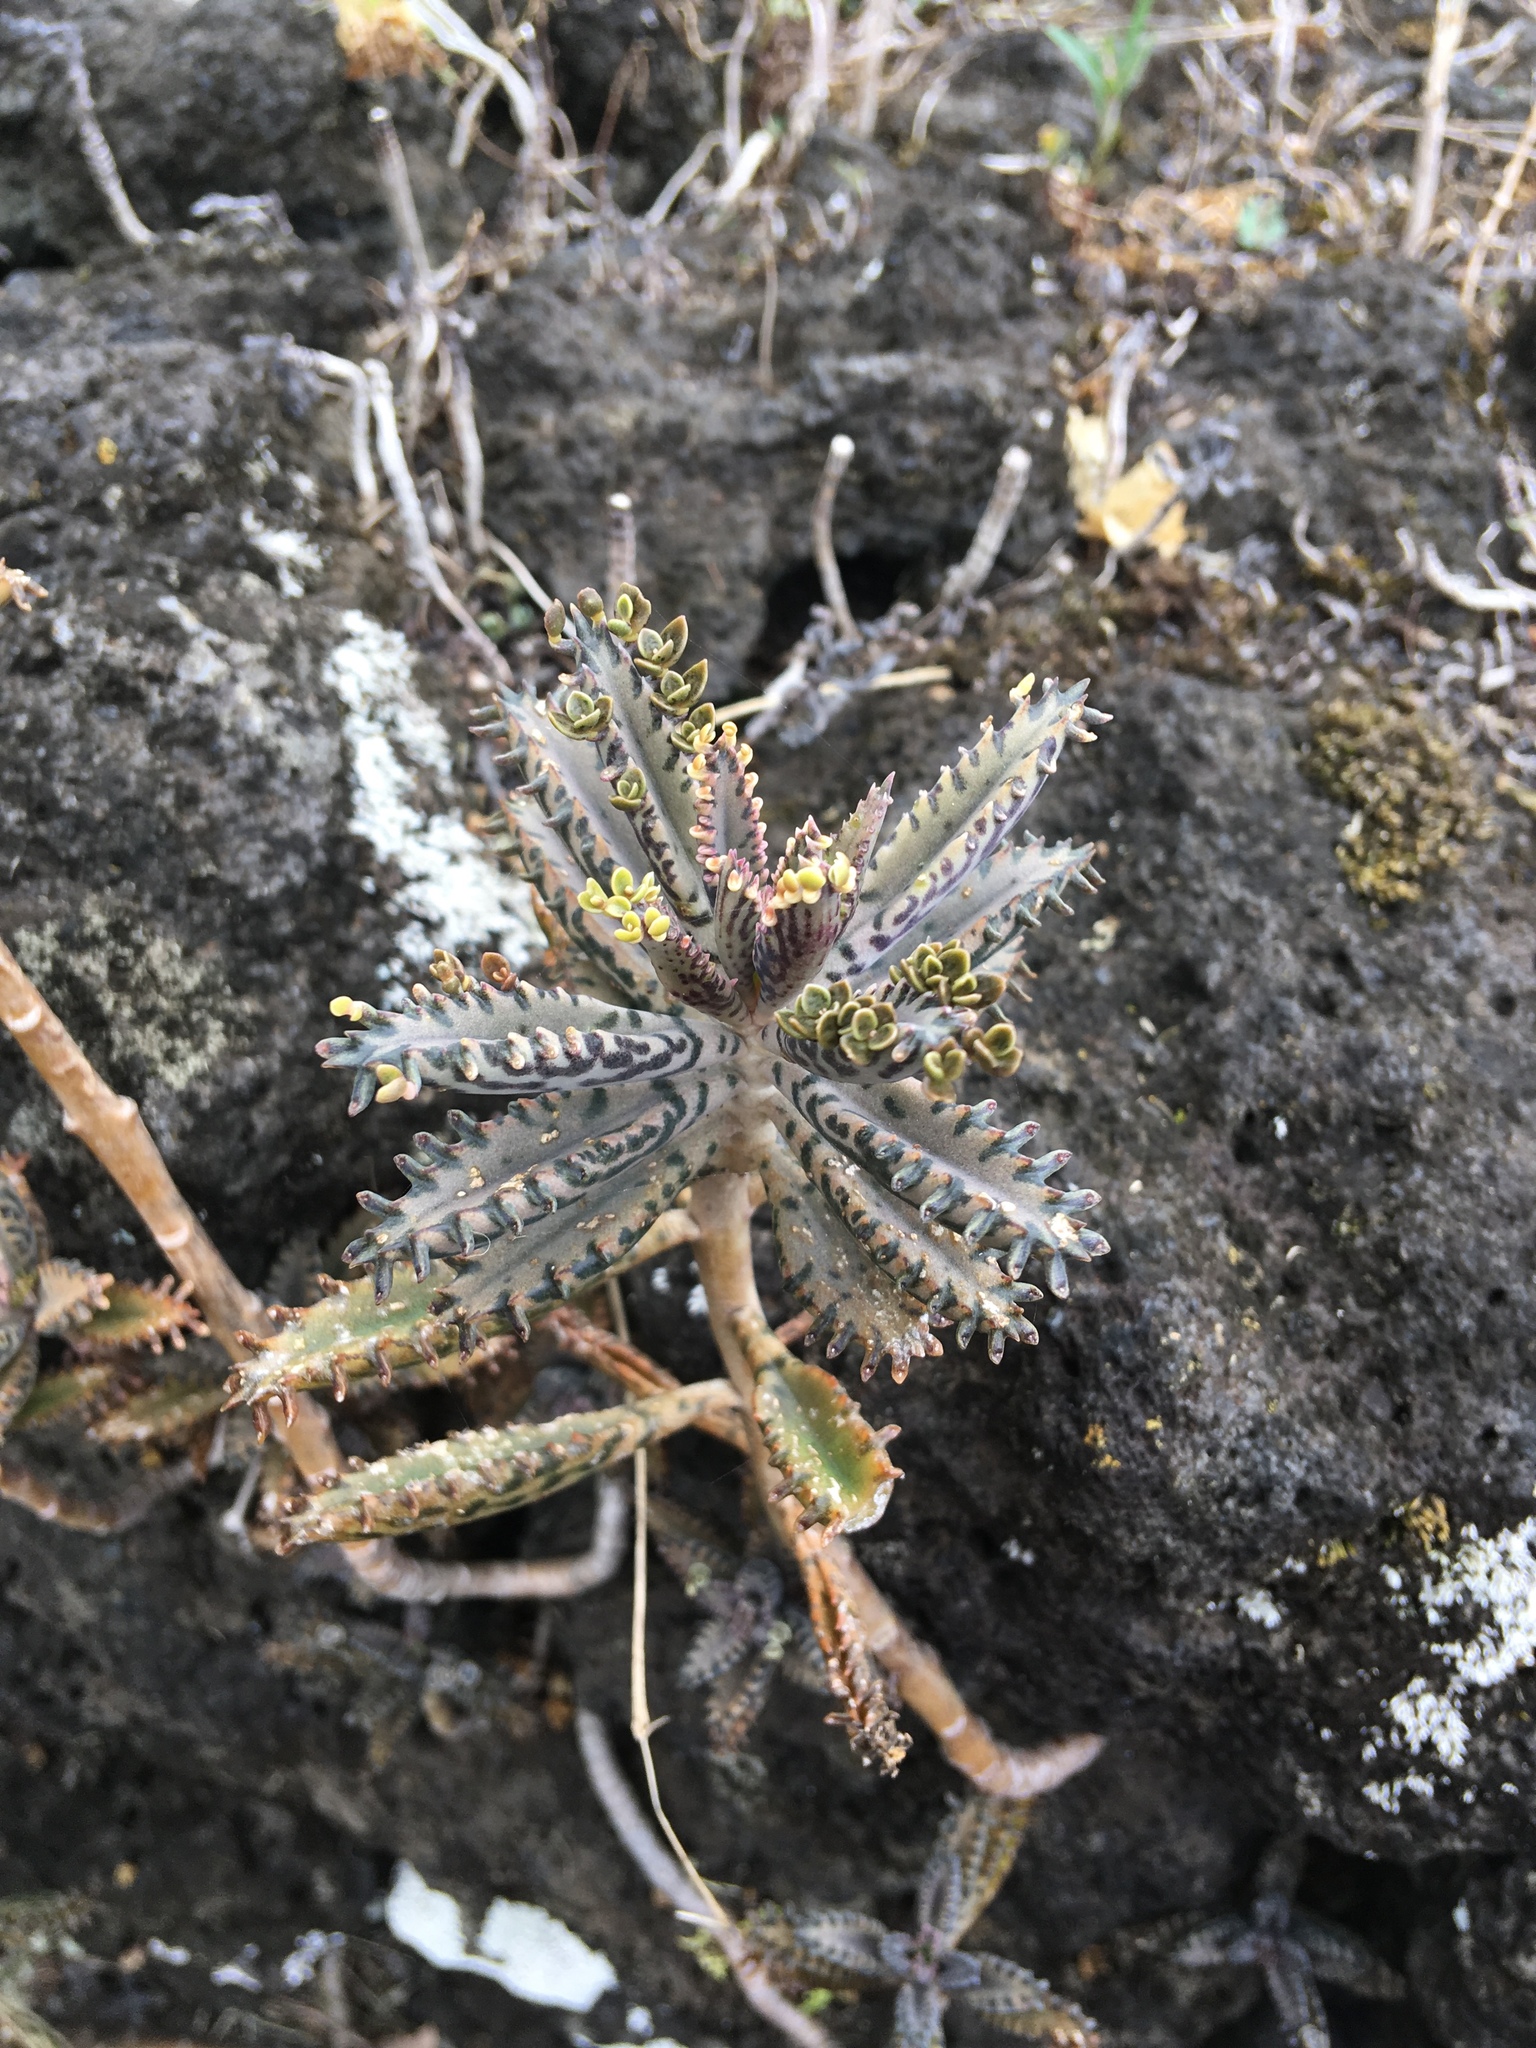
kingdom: Plantae
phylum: Tracheophyta
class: Magnoliopsida
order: Saxifragales
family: Crassulaceae
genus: Kalanchoe
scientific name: Kalanchoe houghtonii
